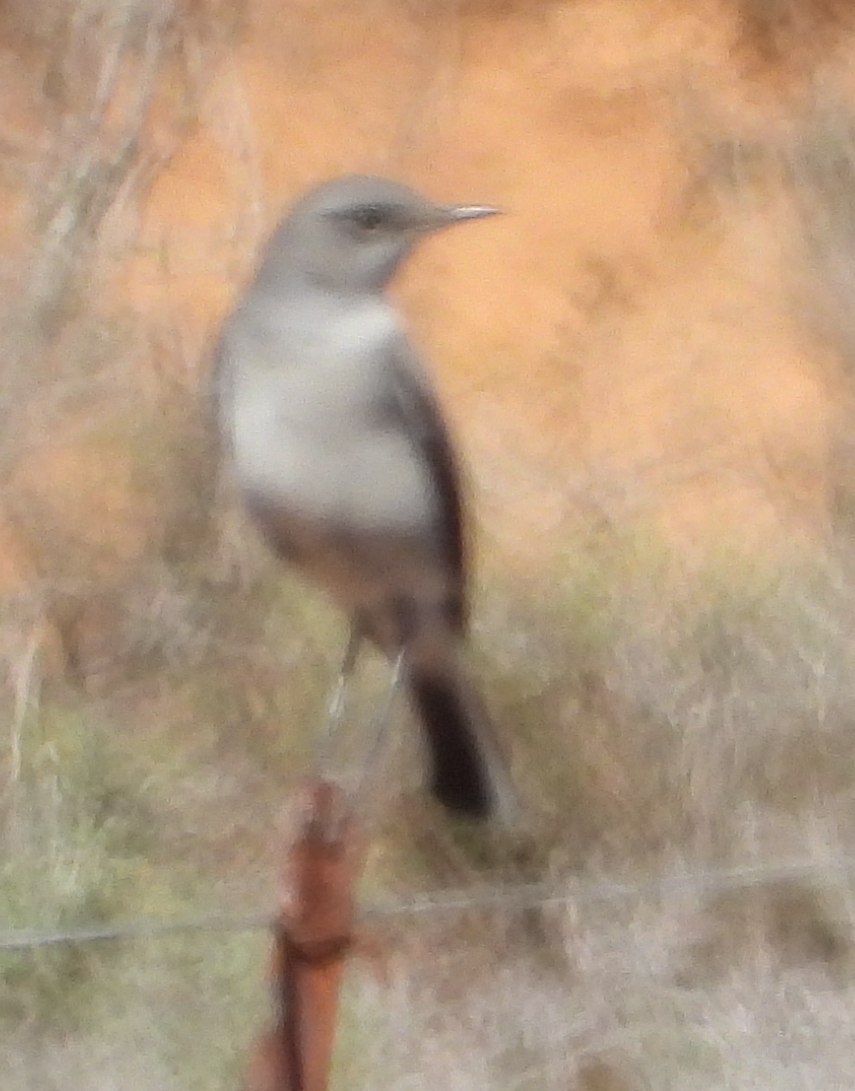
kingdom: Animalia
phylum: Chordata
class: Aves
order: Passeriformes
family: Muscicapidae
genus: Emarginata
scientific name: Emarginata schlegelii
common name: Karoo chat
